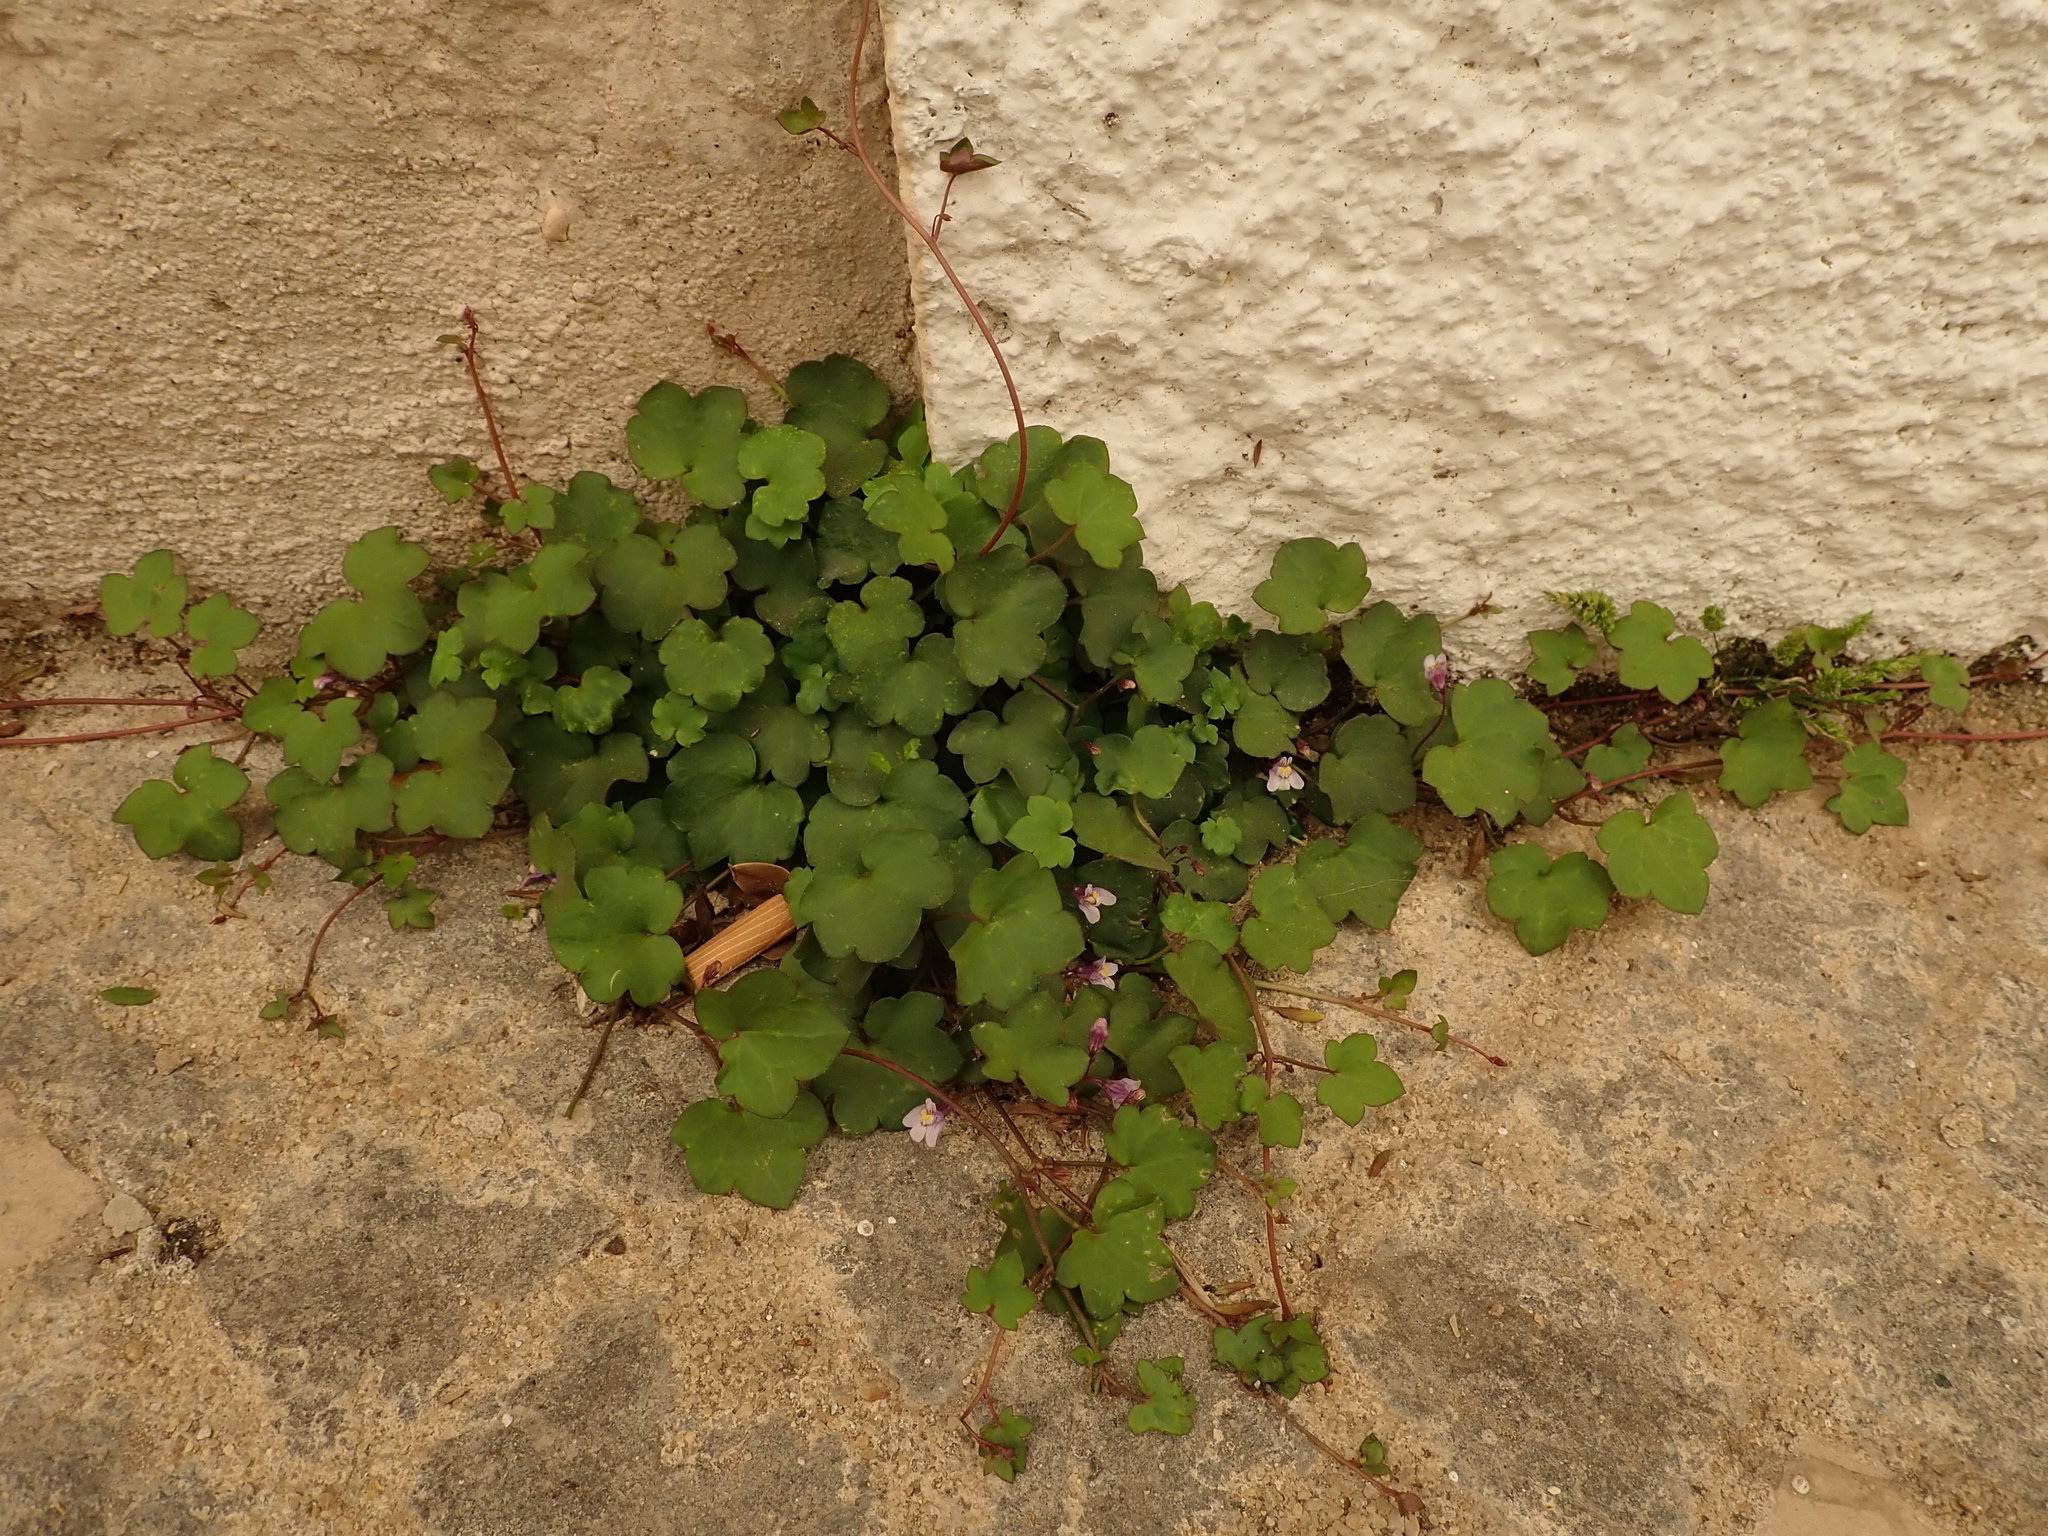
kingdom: Plantae
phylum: Tracheophyta
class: Magnoliopsida
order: Lamiales
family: Plantaginaceae
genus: Cymbalaria
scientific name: Cymbalaria muralis
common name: Ivy-leaved toadflax
